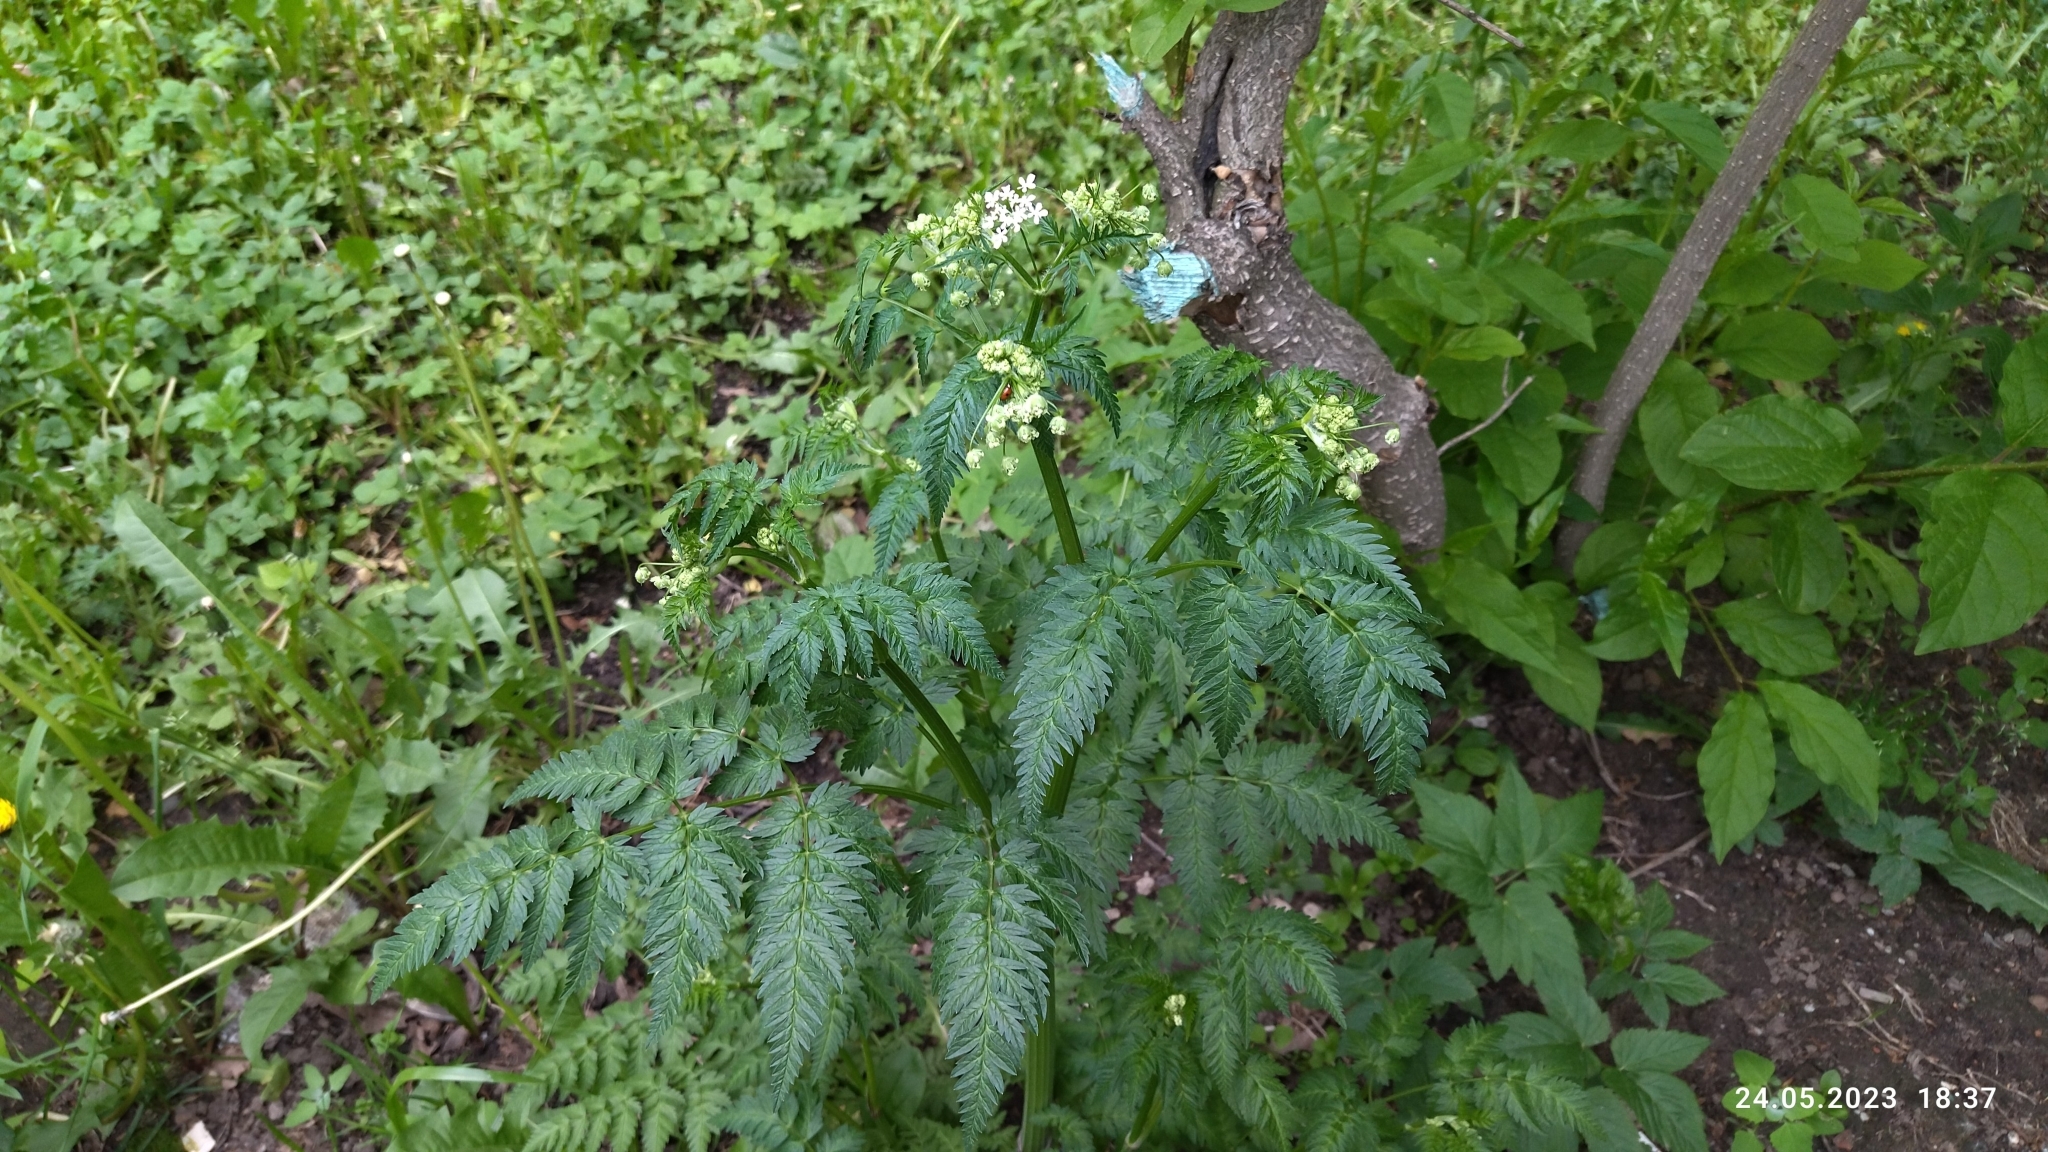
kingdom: Plantae
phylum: Tracheophyta
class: Magnoliopsida
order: Apiales
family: Apiaceae
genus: Anthriscus
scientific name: Anthriscus sylvestris
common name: Cow parsley
